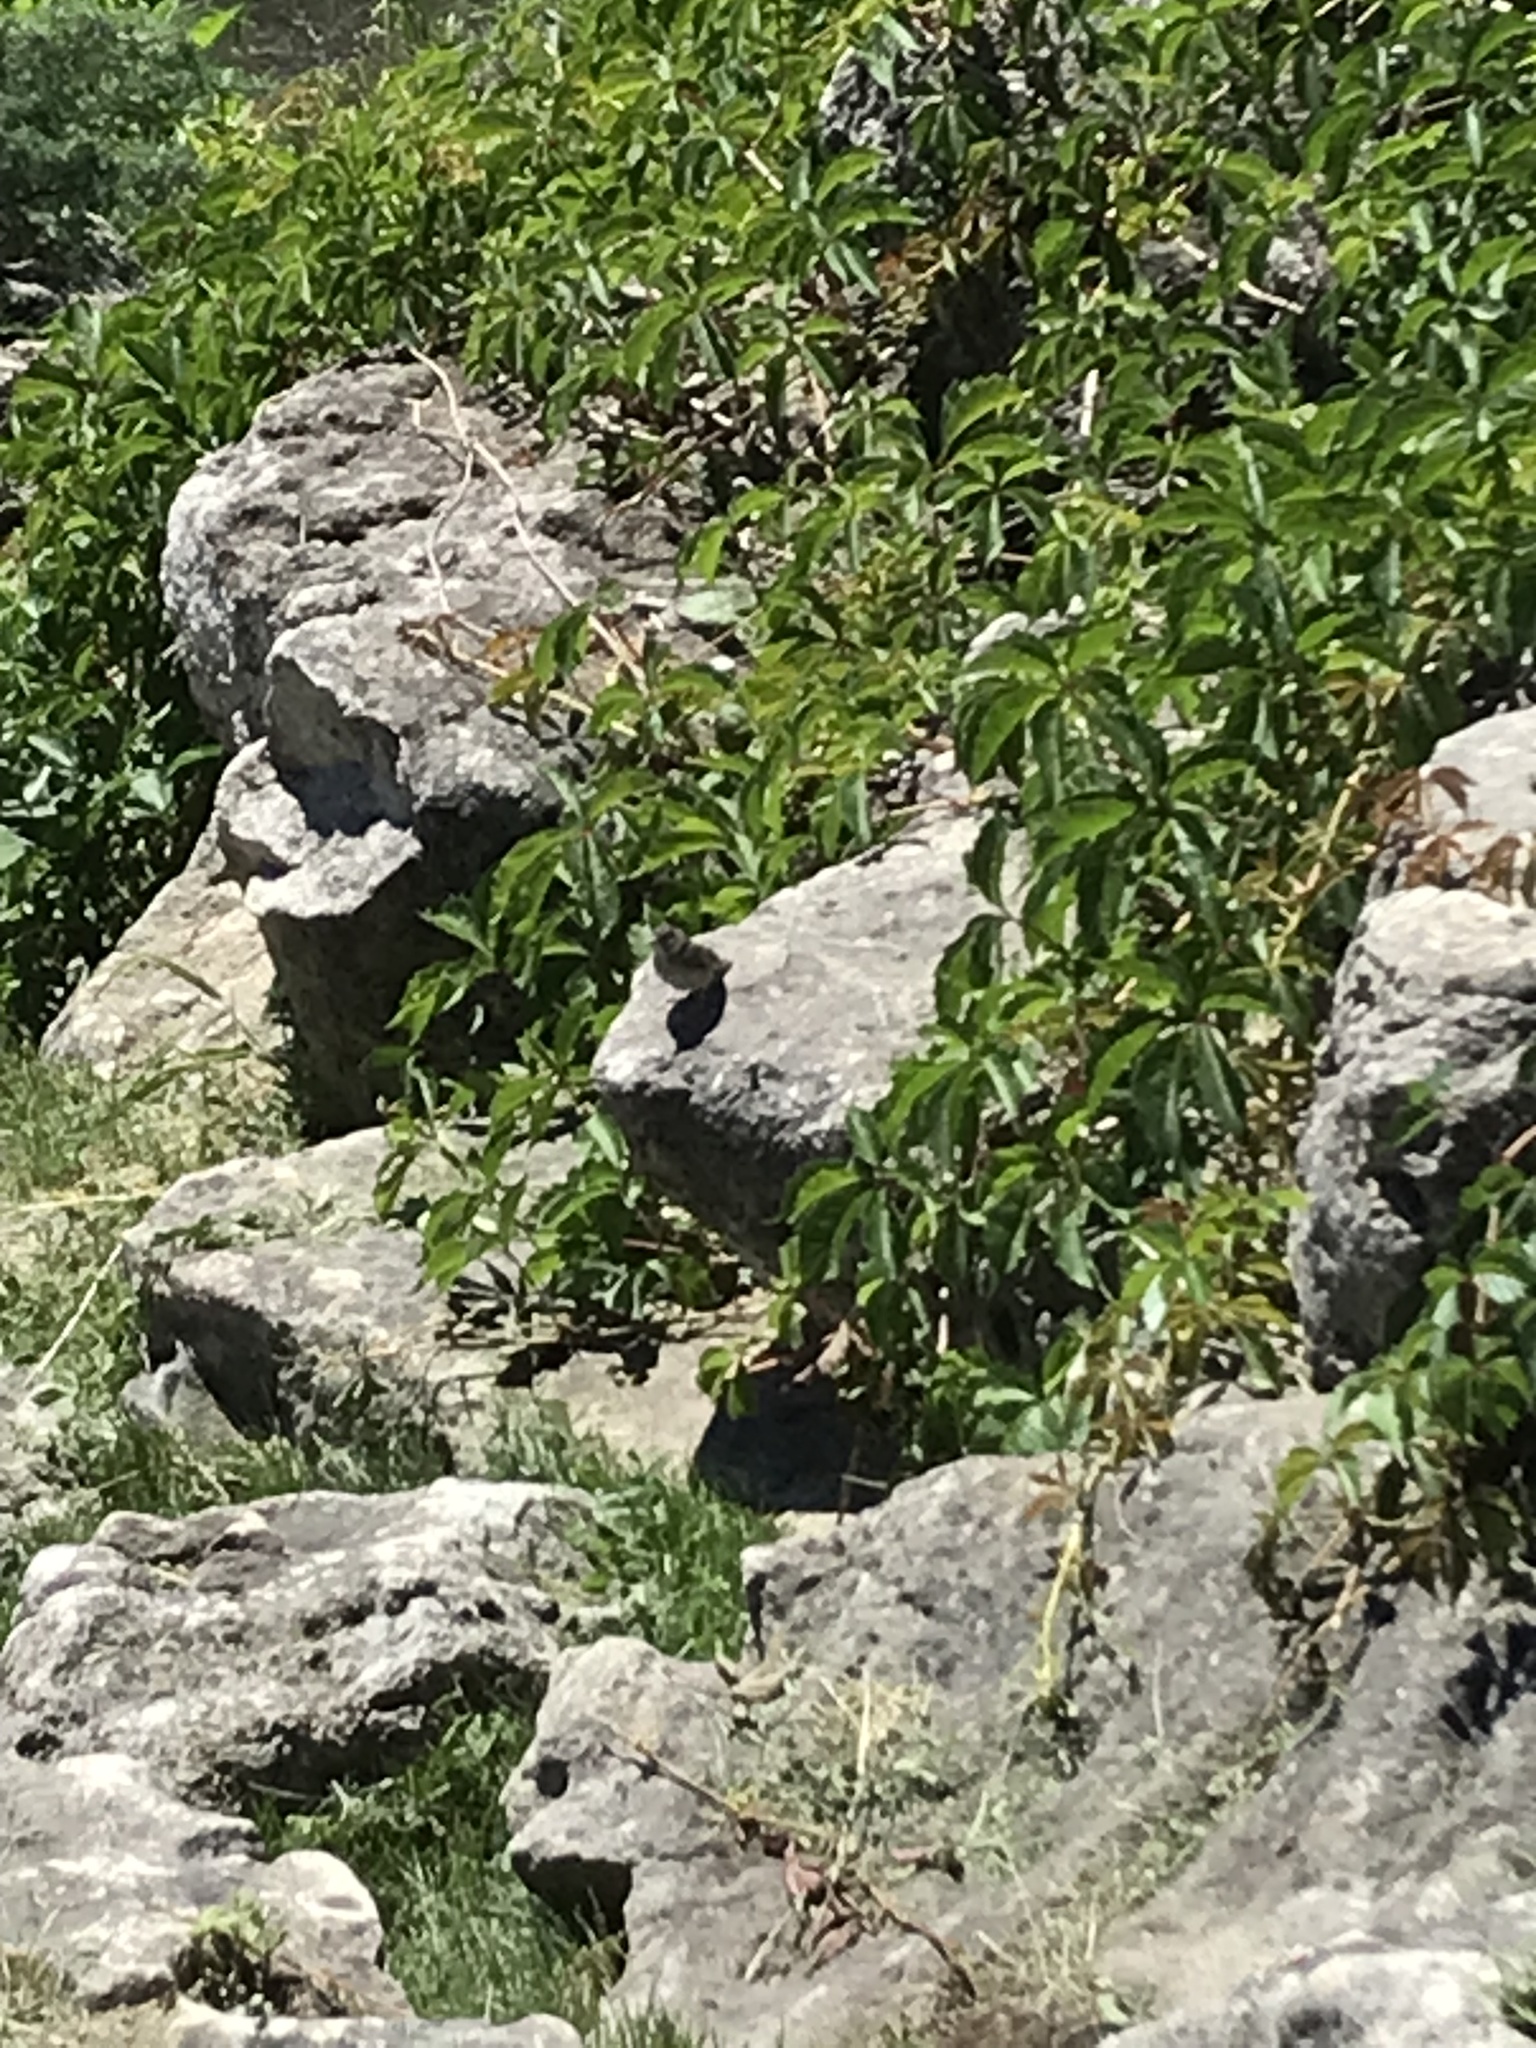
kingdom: Animalia
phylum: Chordata
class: Aves
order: Passeriformes
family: Passerellidae
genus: Spizella
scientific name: Spizella passerina
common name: Chipping sparrow
